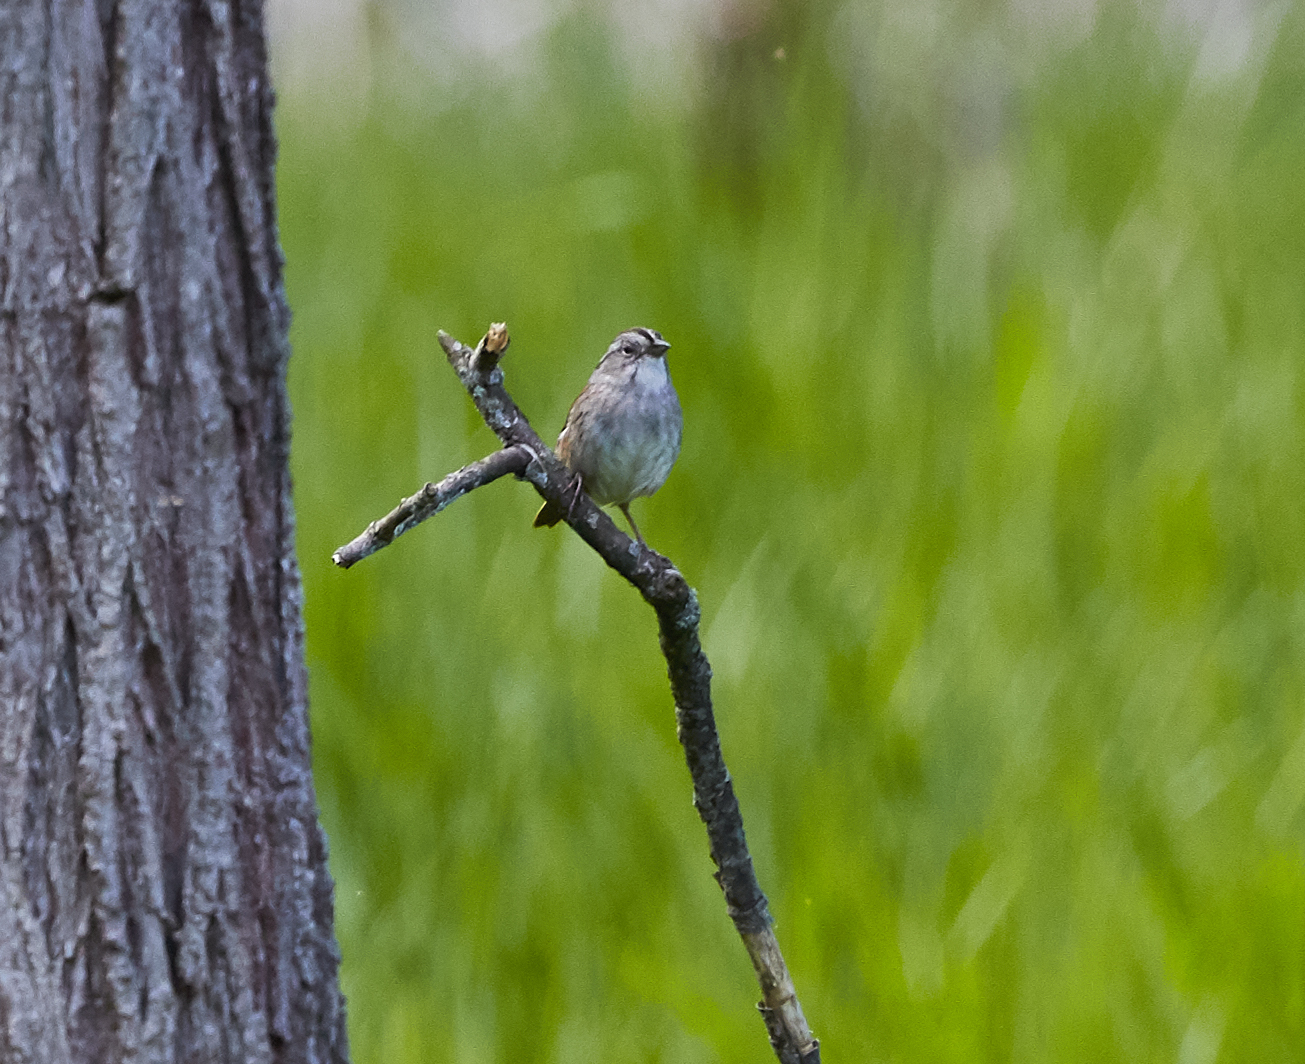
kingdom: Animalia
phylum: Chordata
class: Aves
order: Passeriformes
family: Passerellidae
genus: Melospiza
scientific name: Melospiza georgiana
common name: Swamp sparrow
